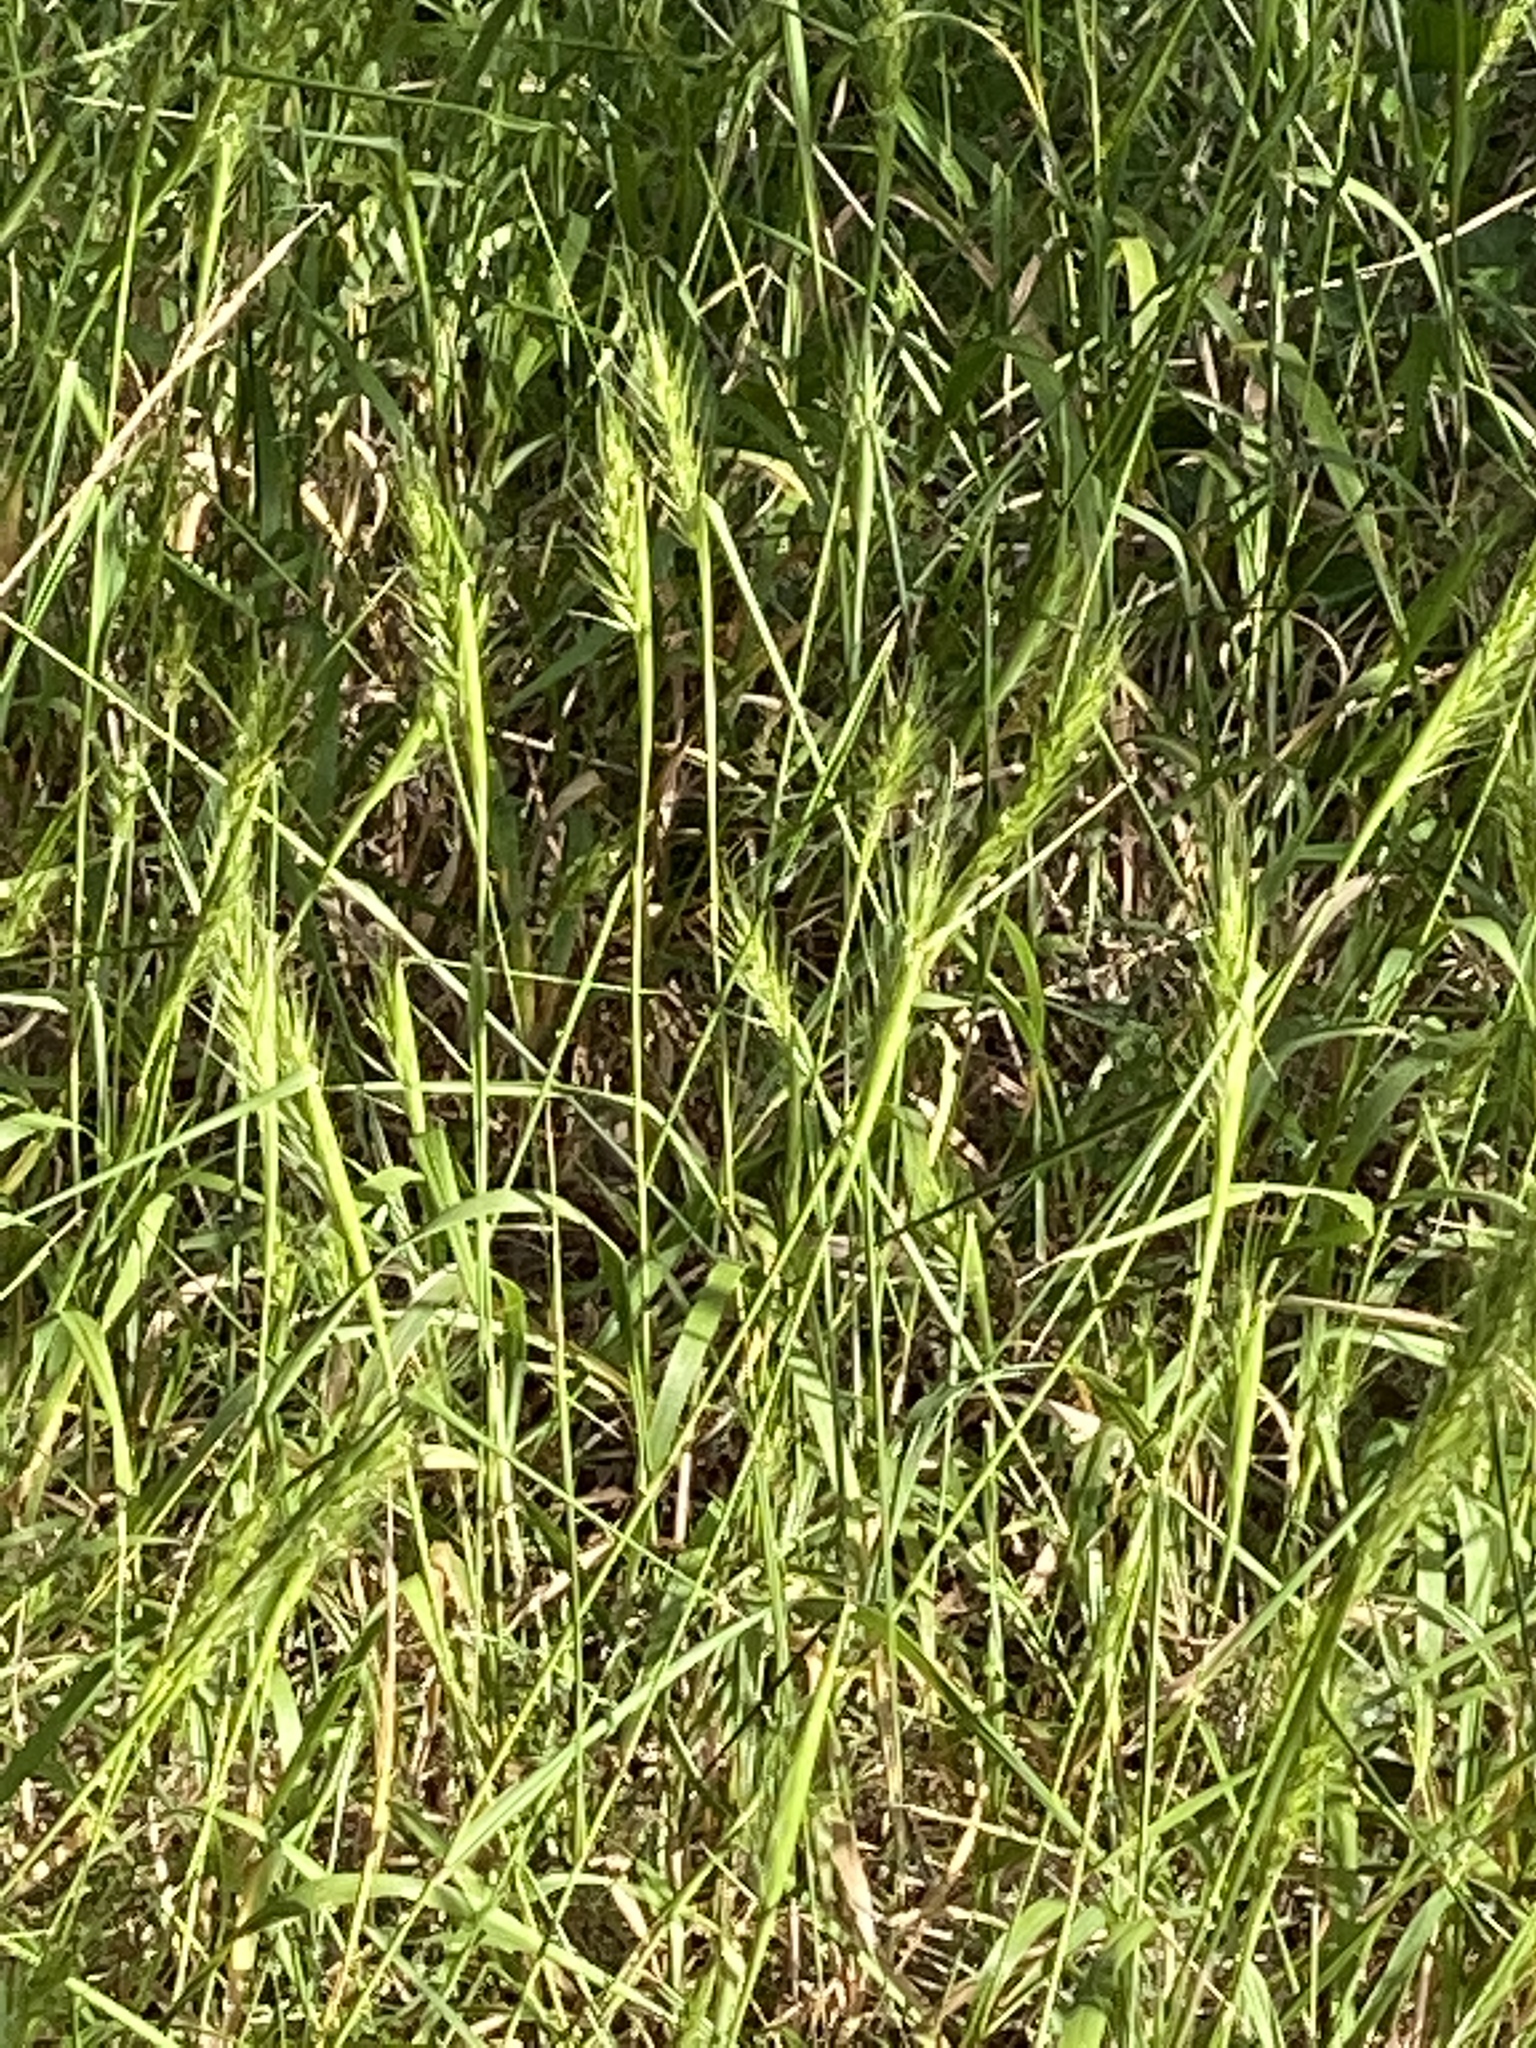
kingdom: Plantae
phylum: Tracheophyta
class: Liliopsida
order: Poales
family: Poaceae
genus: Elymus
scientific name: Elymus virginicus
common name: Common eastern wildrye
